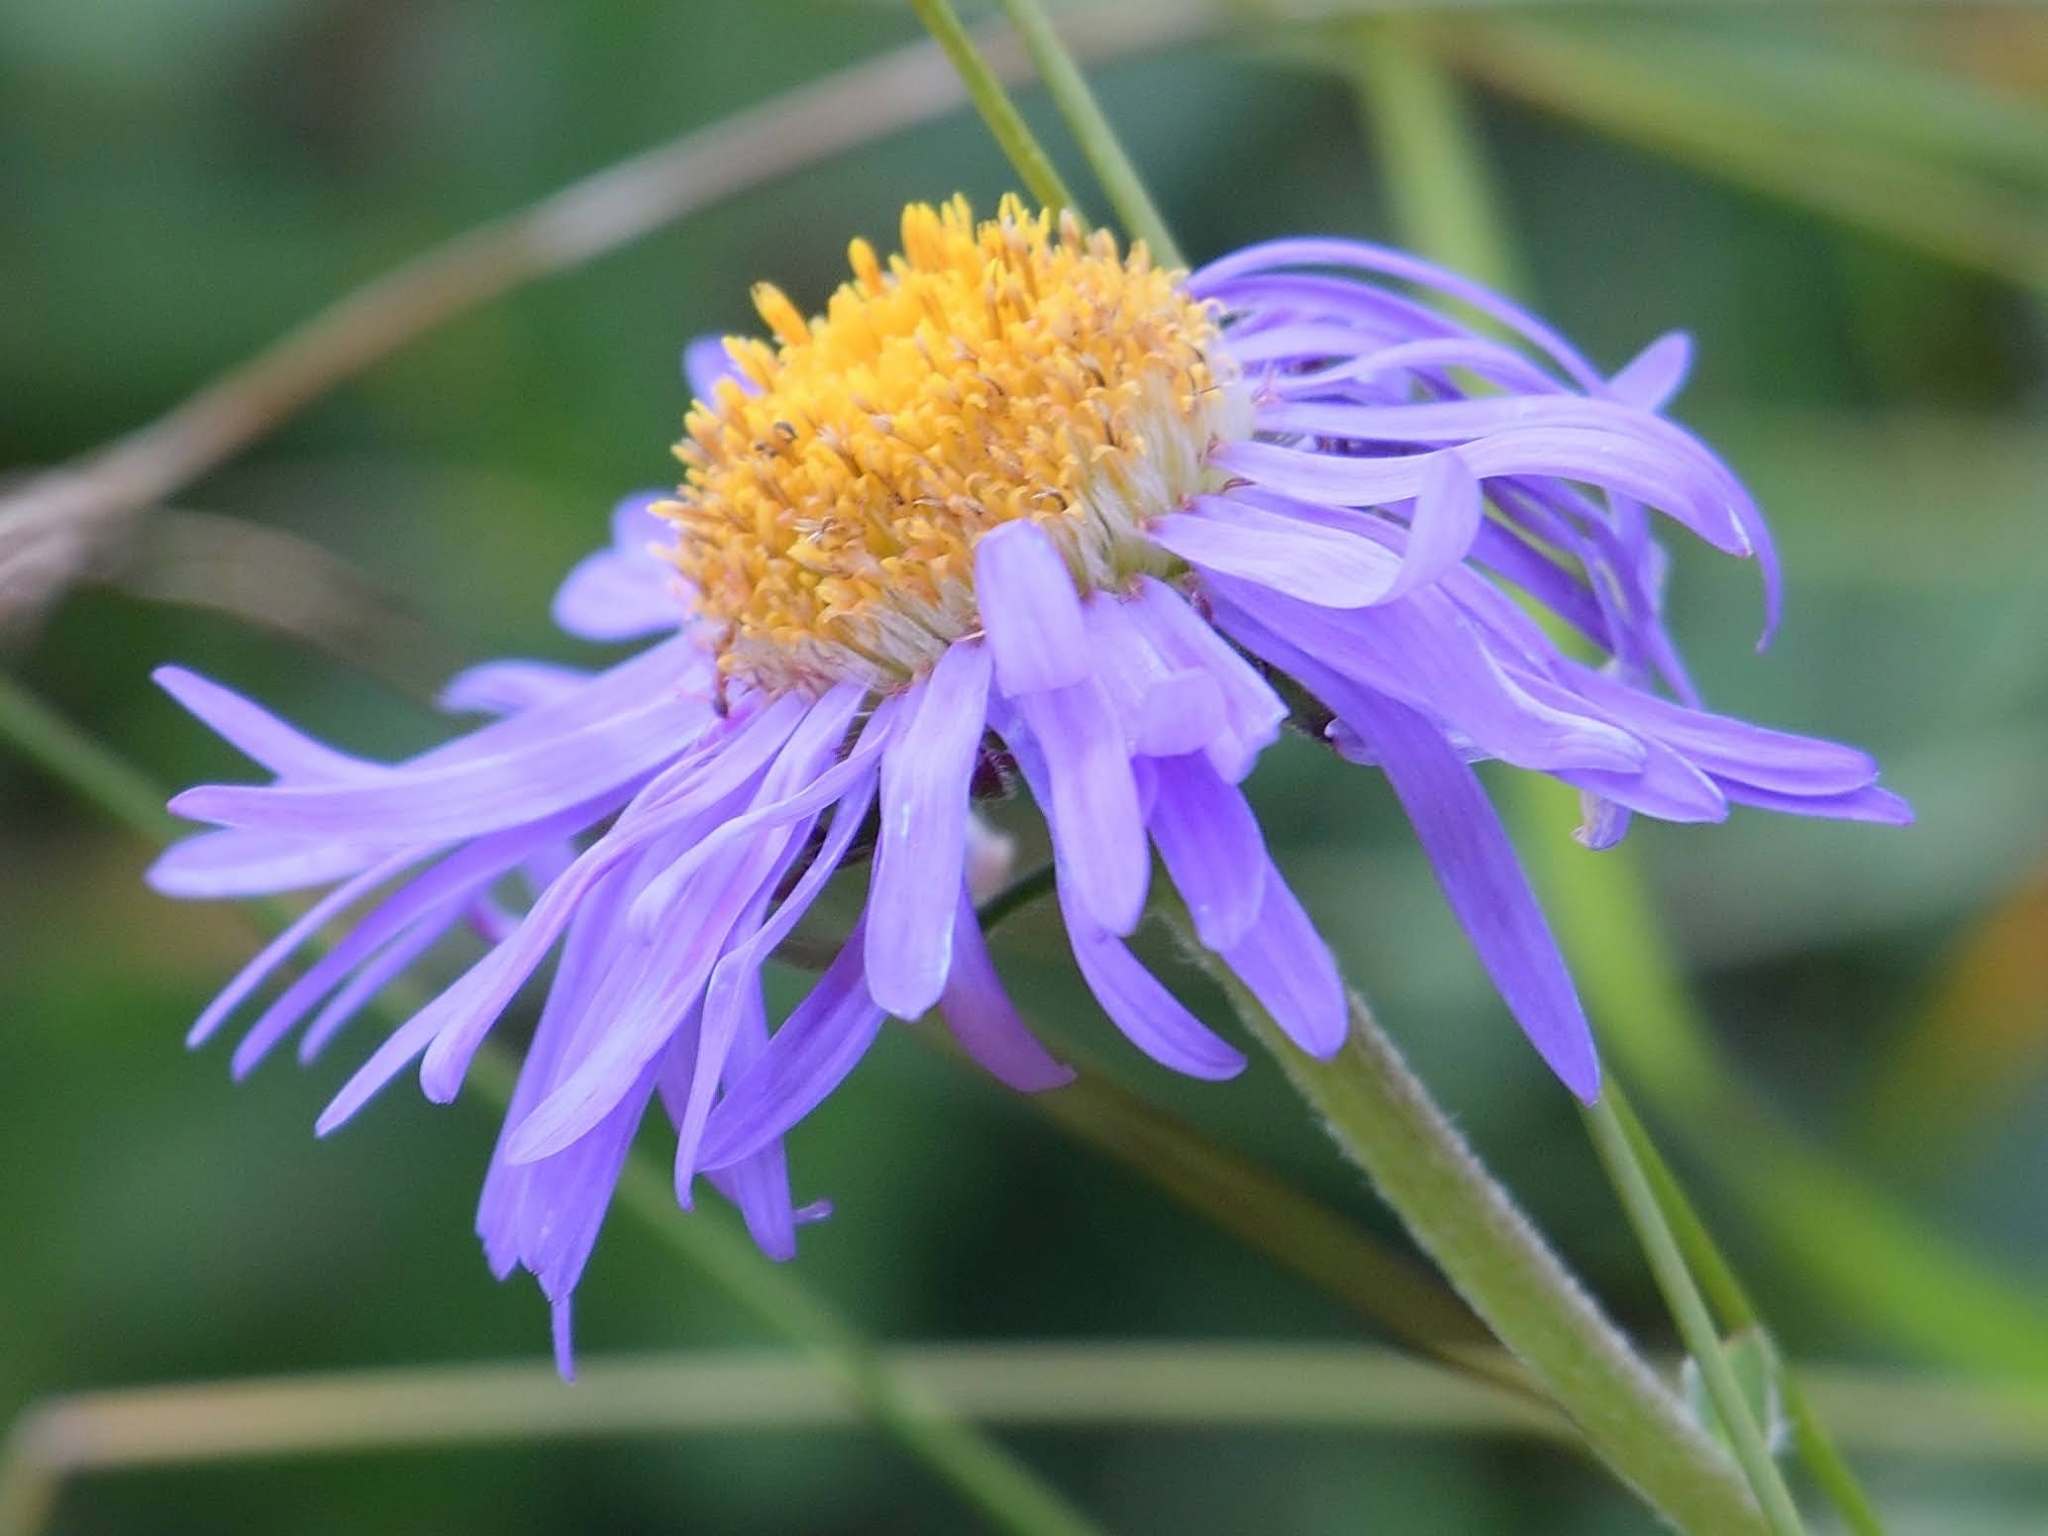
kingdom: Plantae
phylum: Tracheophyta
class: Magnoliopsida
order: Asterales
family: Asteraceae
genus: Aster
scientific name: Aster alpinus
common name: Alpine aster
